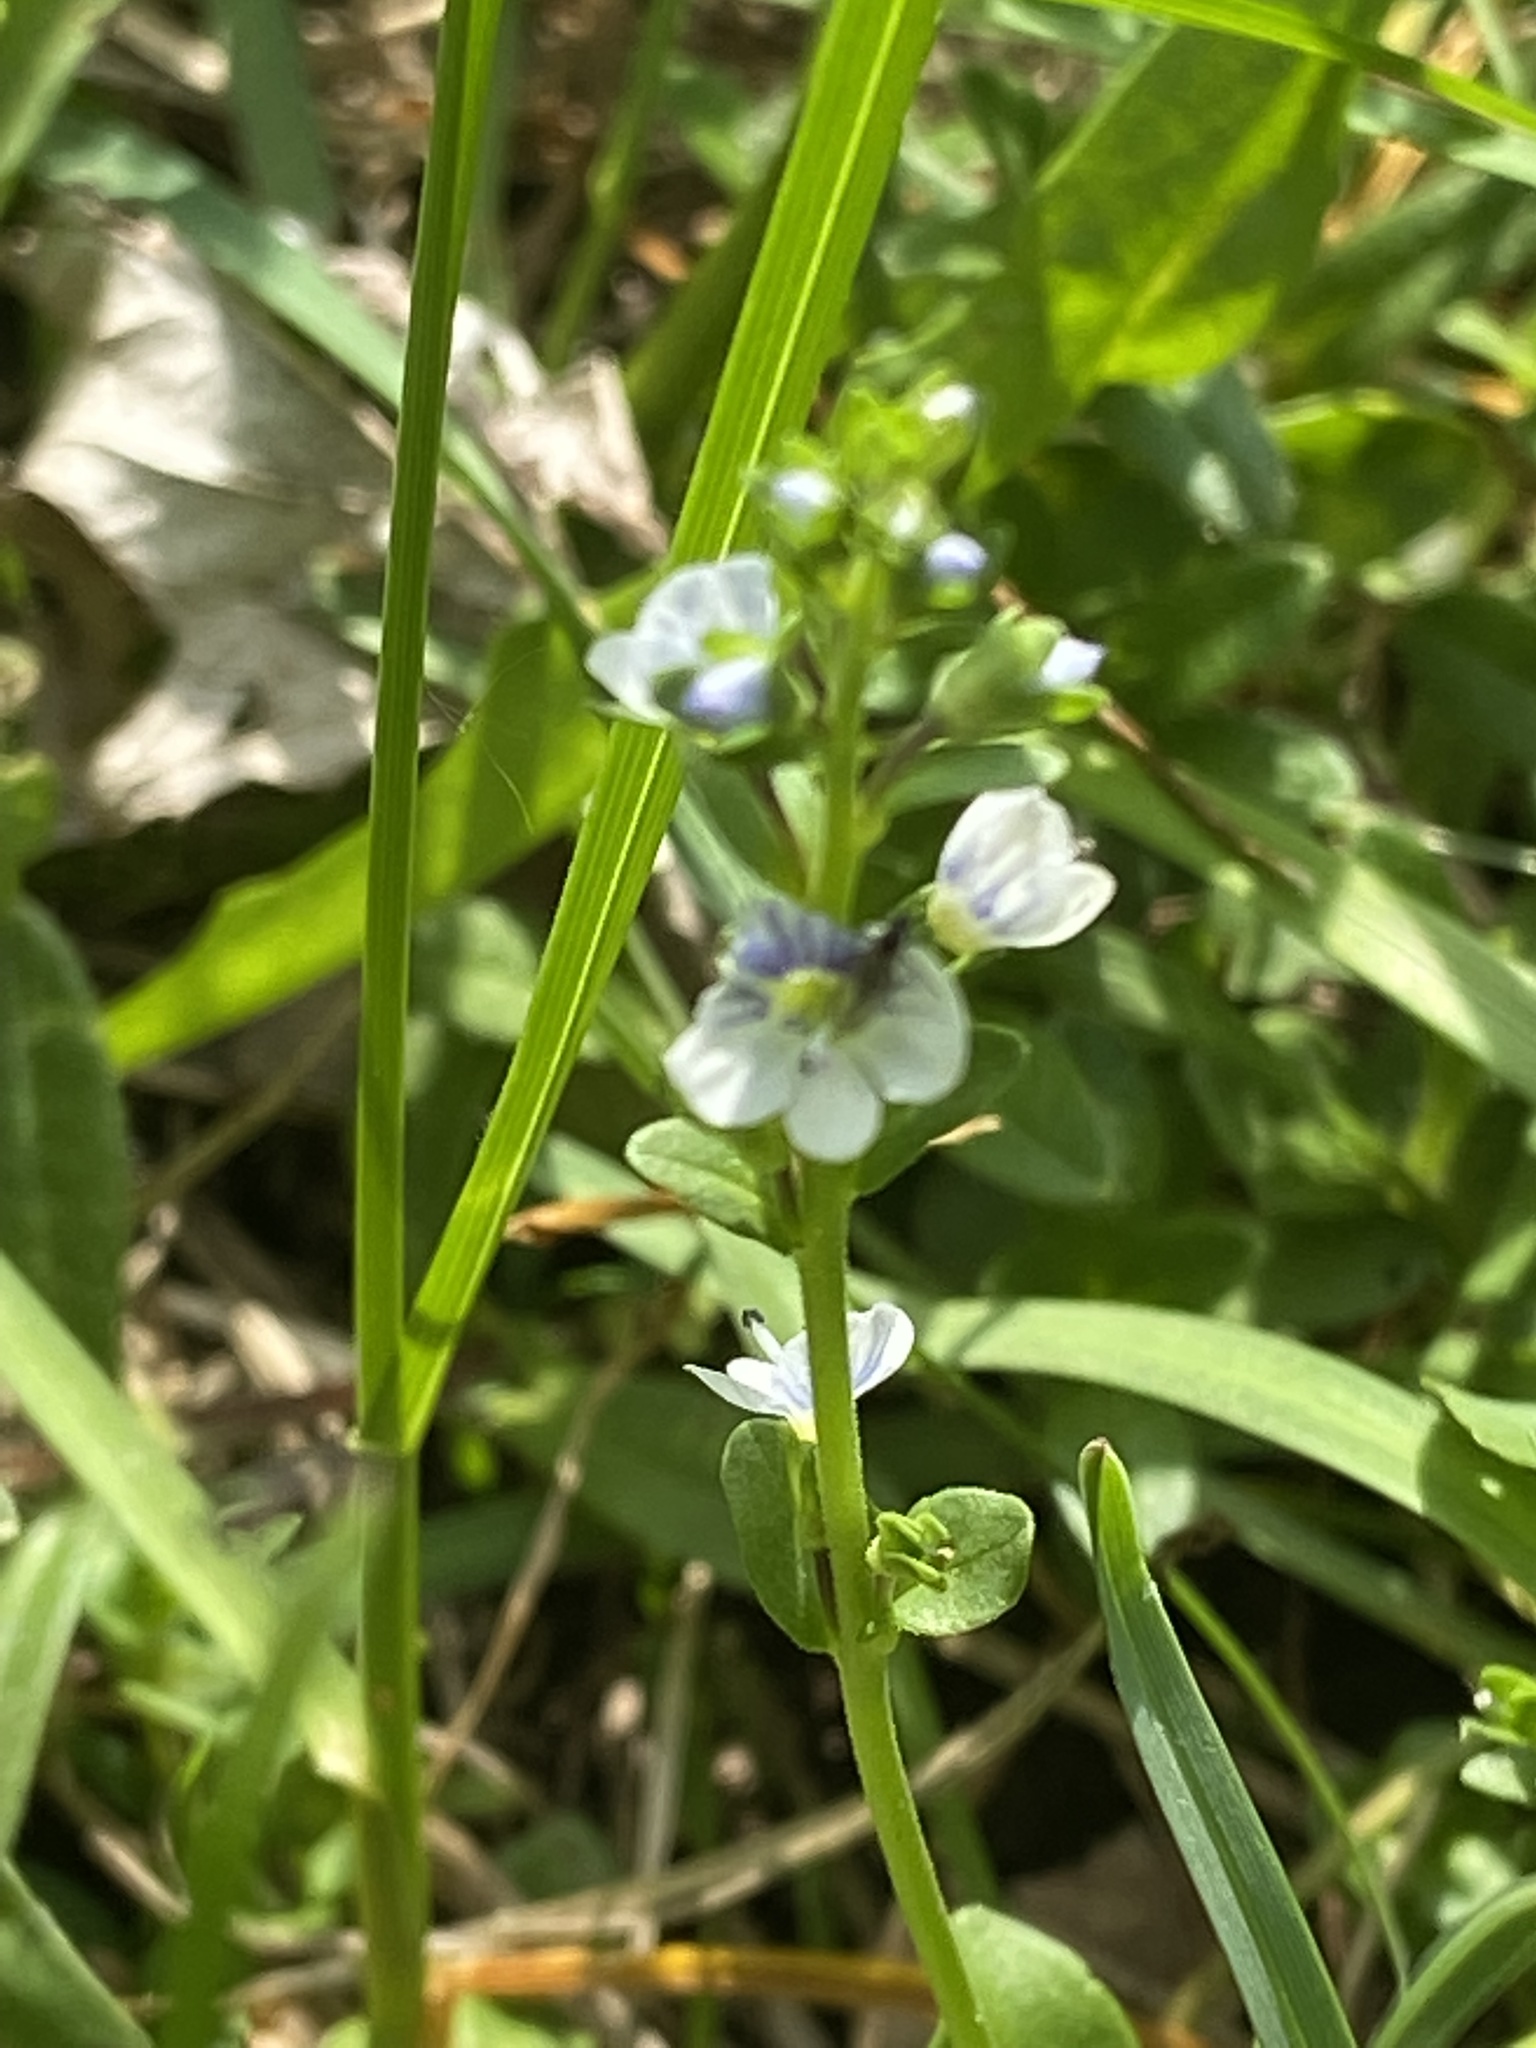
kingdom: Plantae
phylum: Tracheophyta
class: Magnoliopsida
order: Lamiales
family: Plantaginaceae
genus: Veronica
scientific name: Veronica serpyllifolia
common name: Thyme-leaved speedwell
